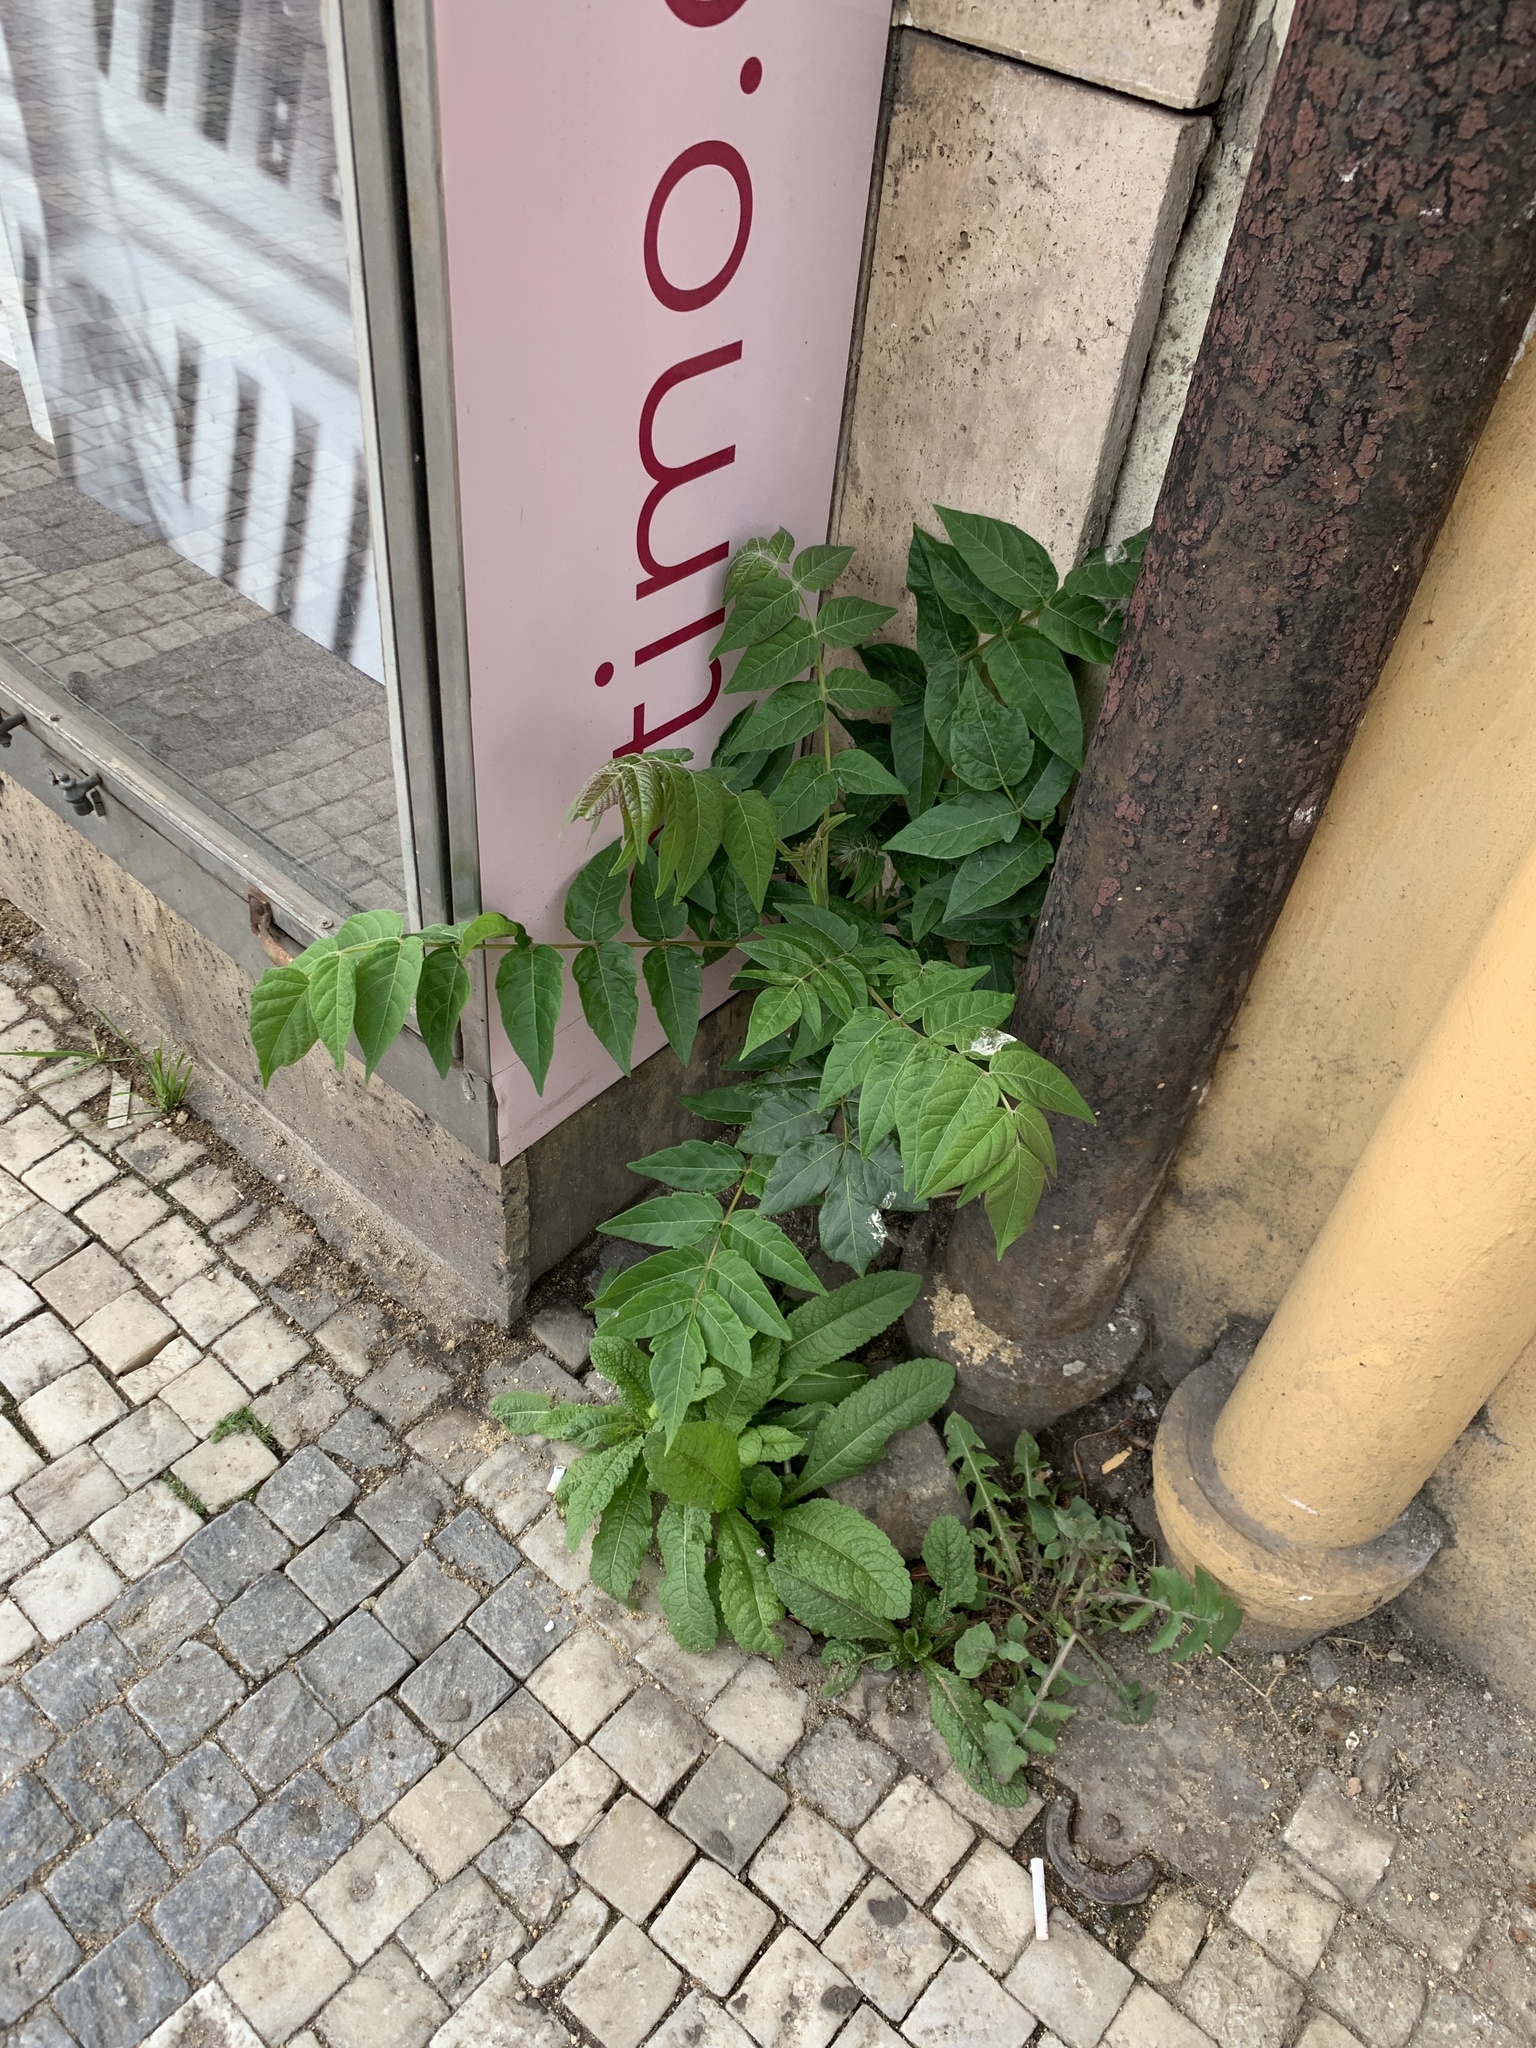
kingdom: Plantae
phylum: Tracheophyta
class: Magnoliopsida
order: Sapindales
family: Simaroubaceae
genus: Ailanthus
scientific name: Ailanthus altissima
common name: Tree-of-heaven
